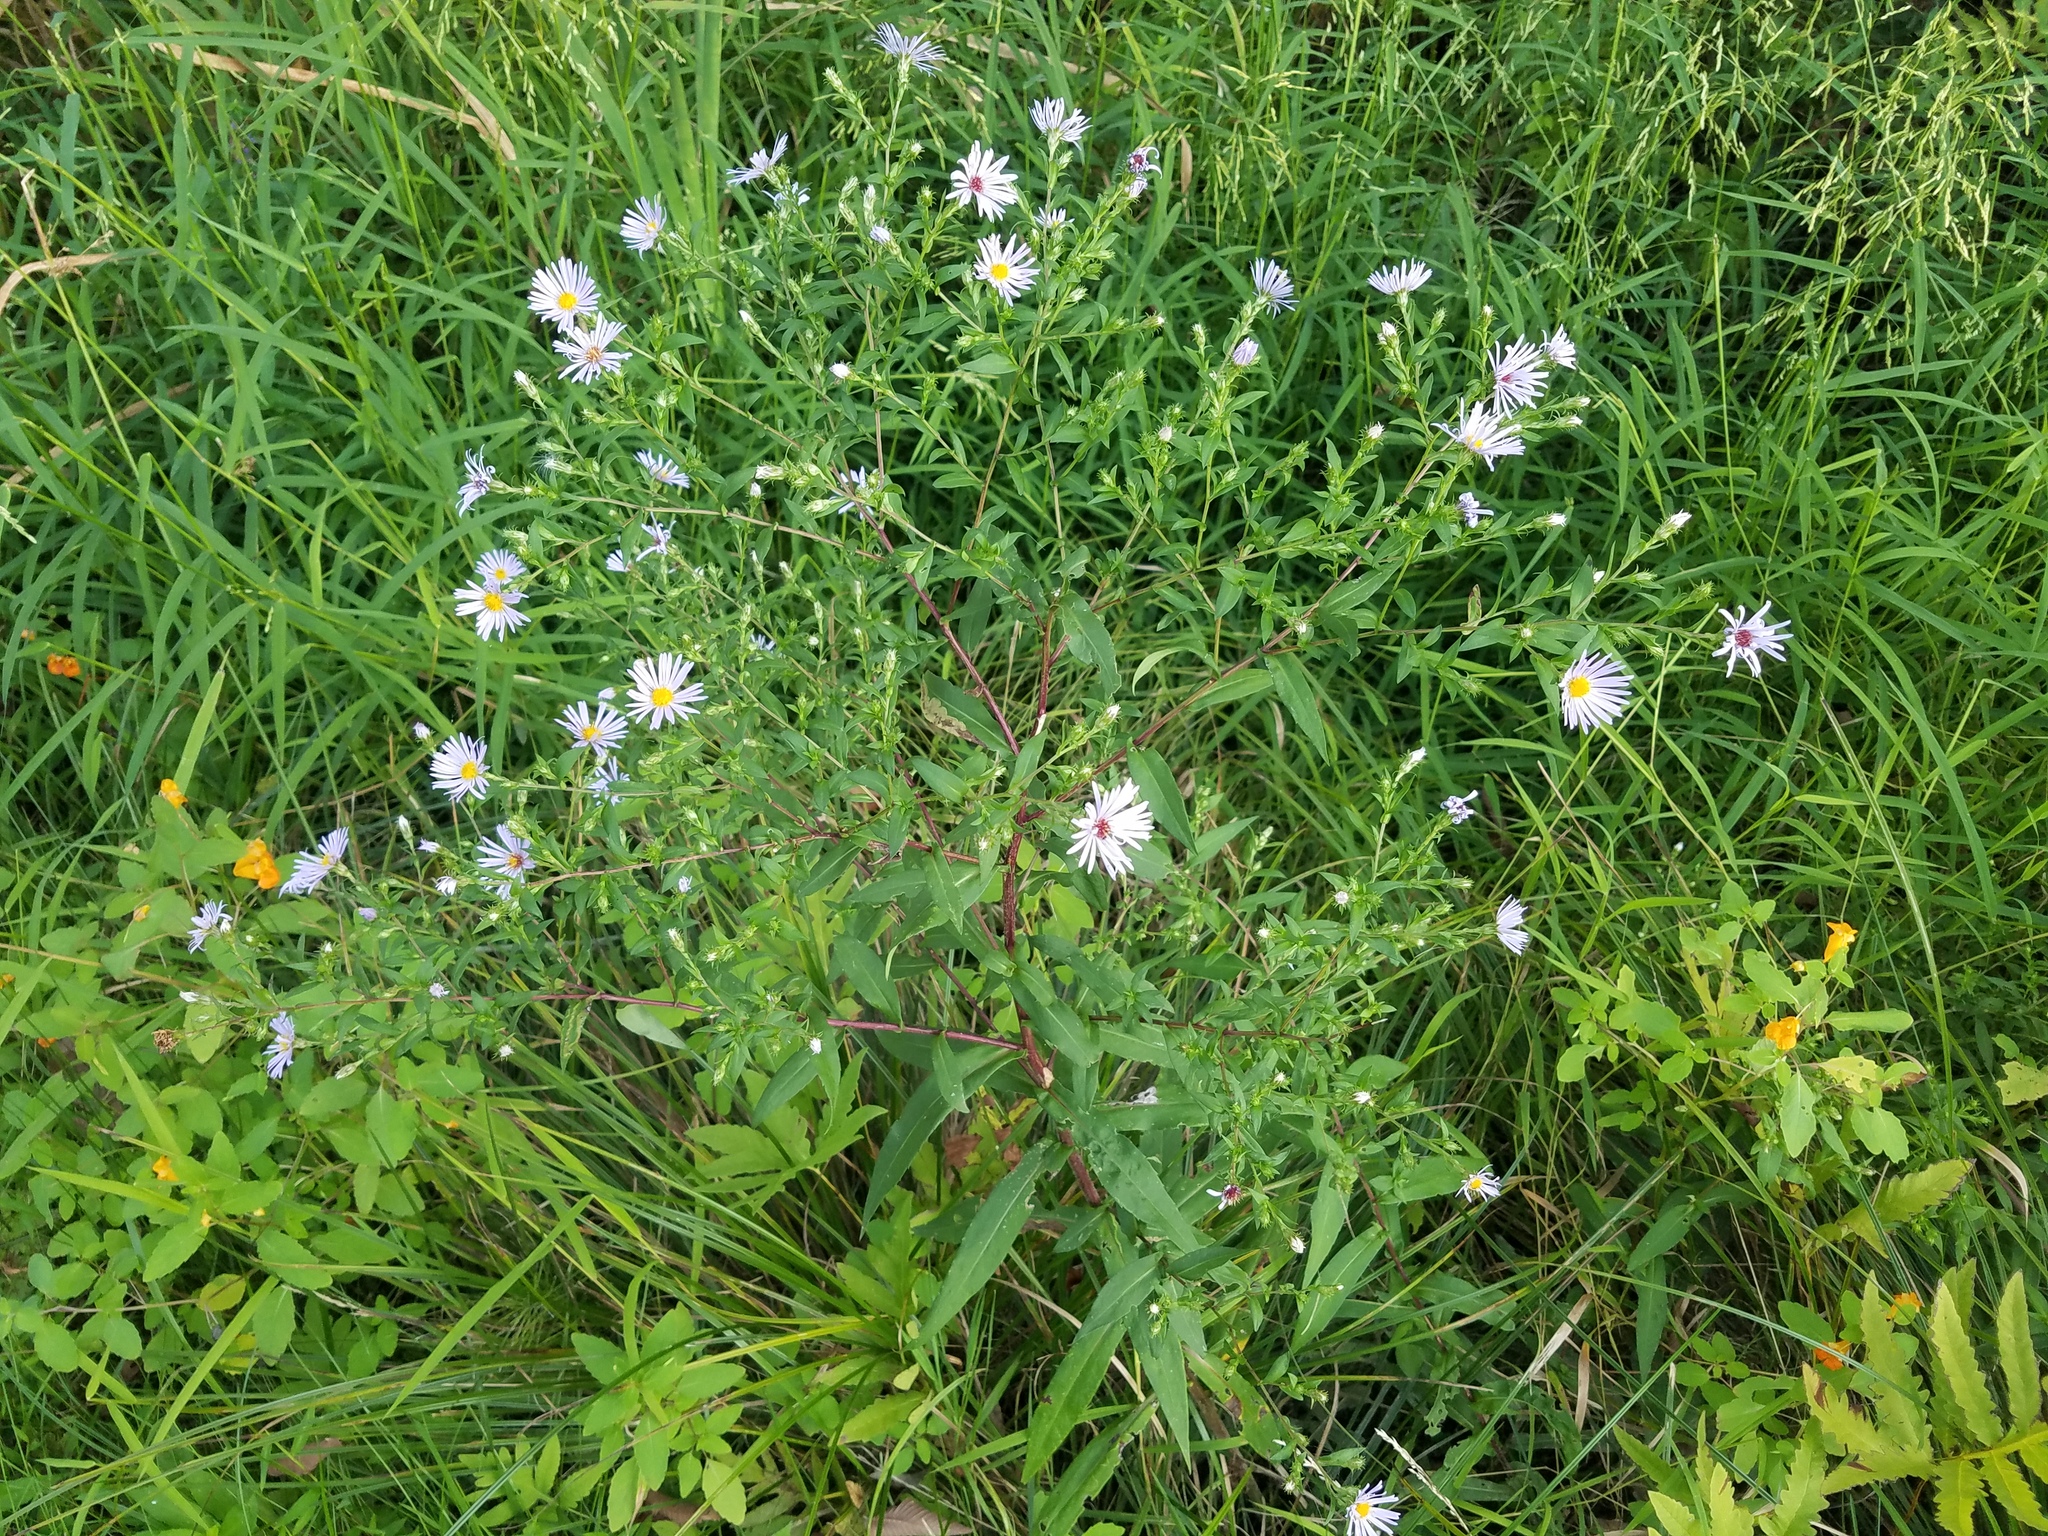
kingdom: Plantae
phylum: Tracheophyta
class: Magnoliopsida
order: Asterales
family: Asteraceae
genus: Symphyotrichum
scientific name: Symphyotrichum puniceum
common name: Bog aster
